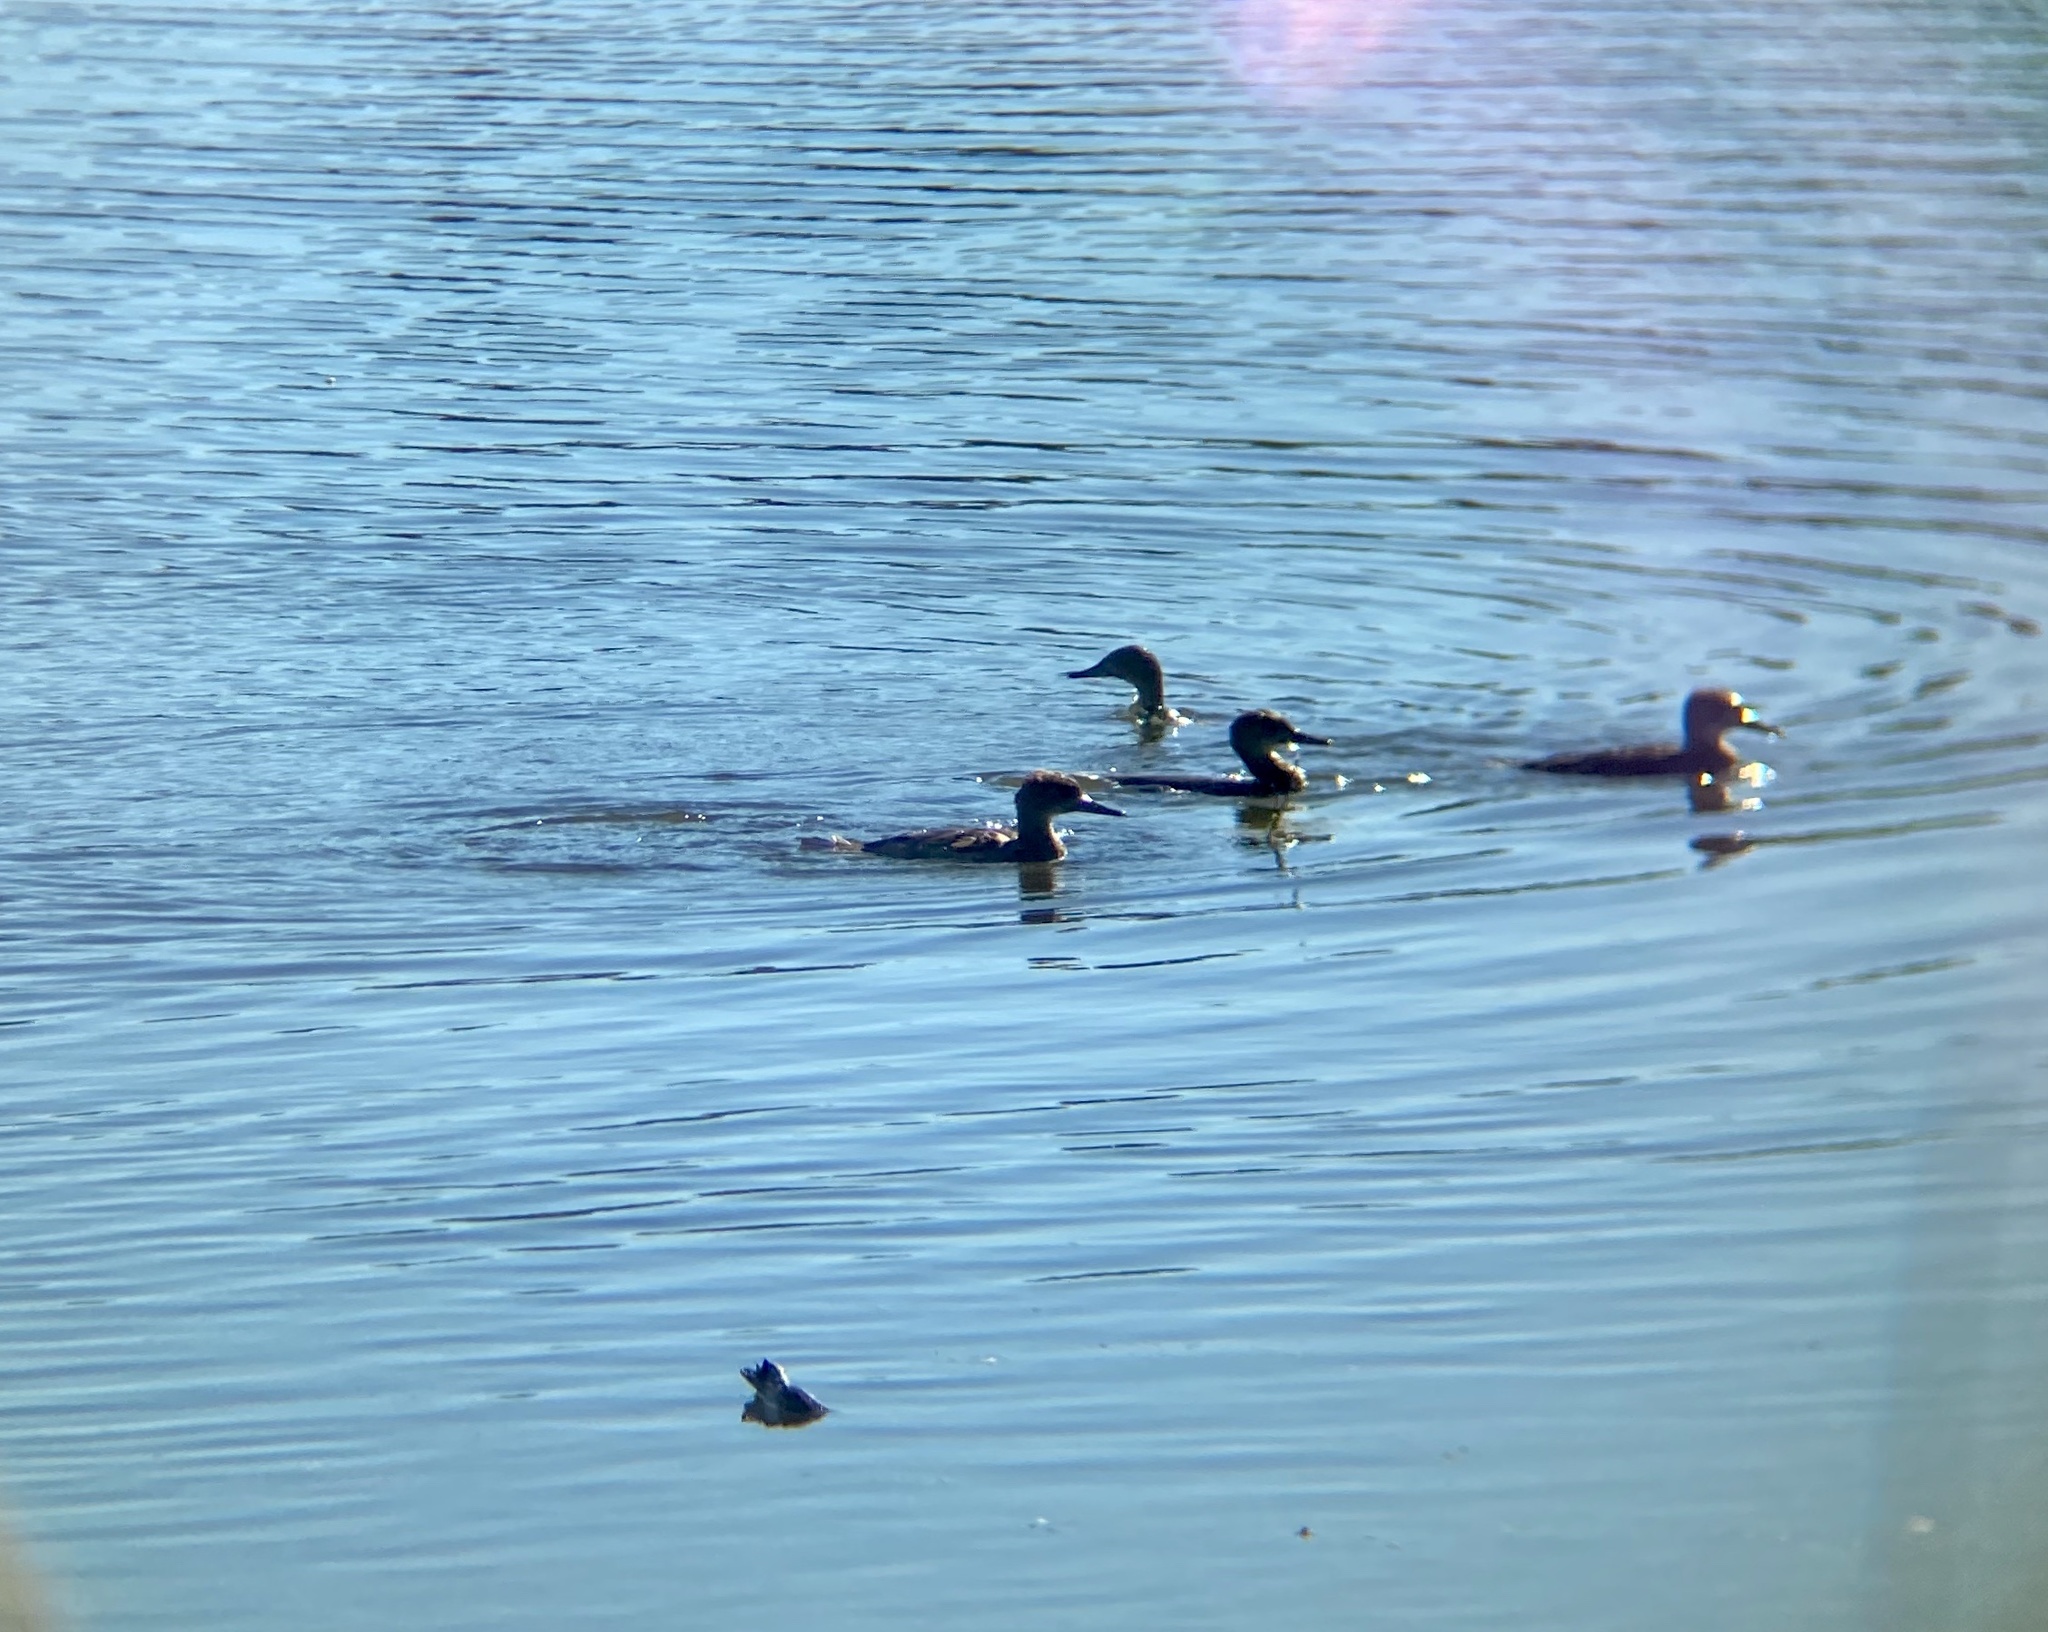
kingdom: Animalia
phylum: Chordata
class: Aves
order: Anseriformes
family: Anatidae
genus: Lophodytes
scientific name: Lophodytes cucullatus
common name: Hooded merganser
